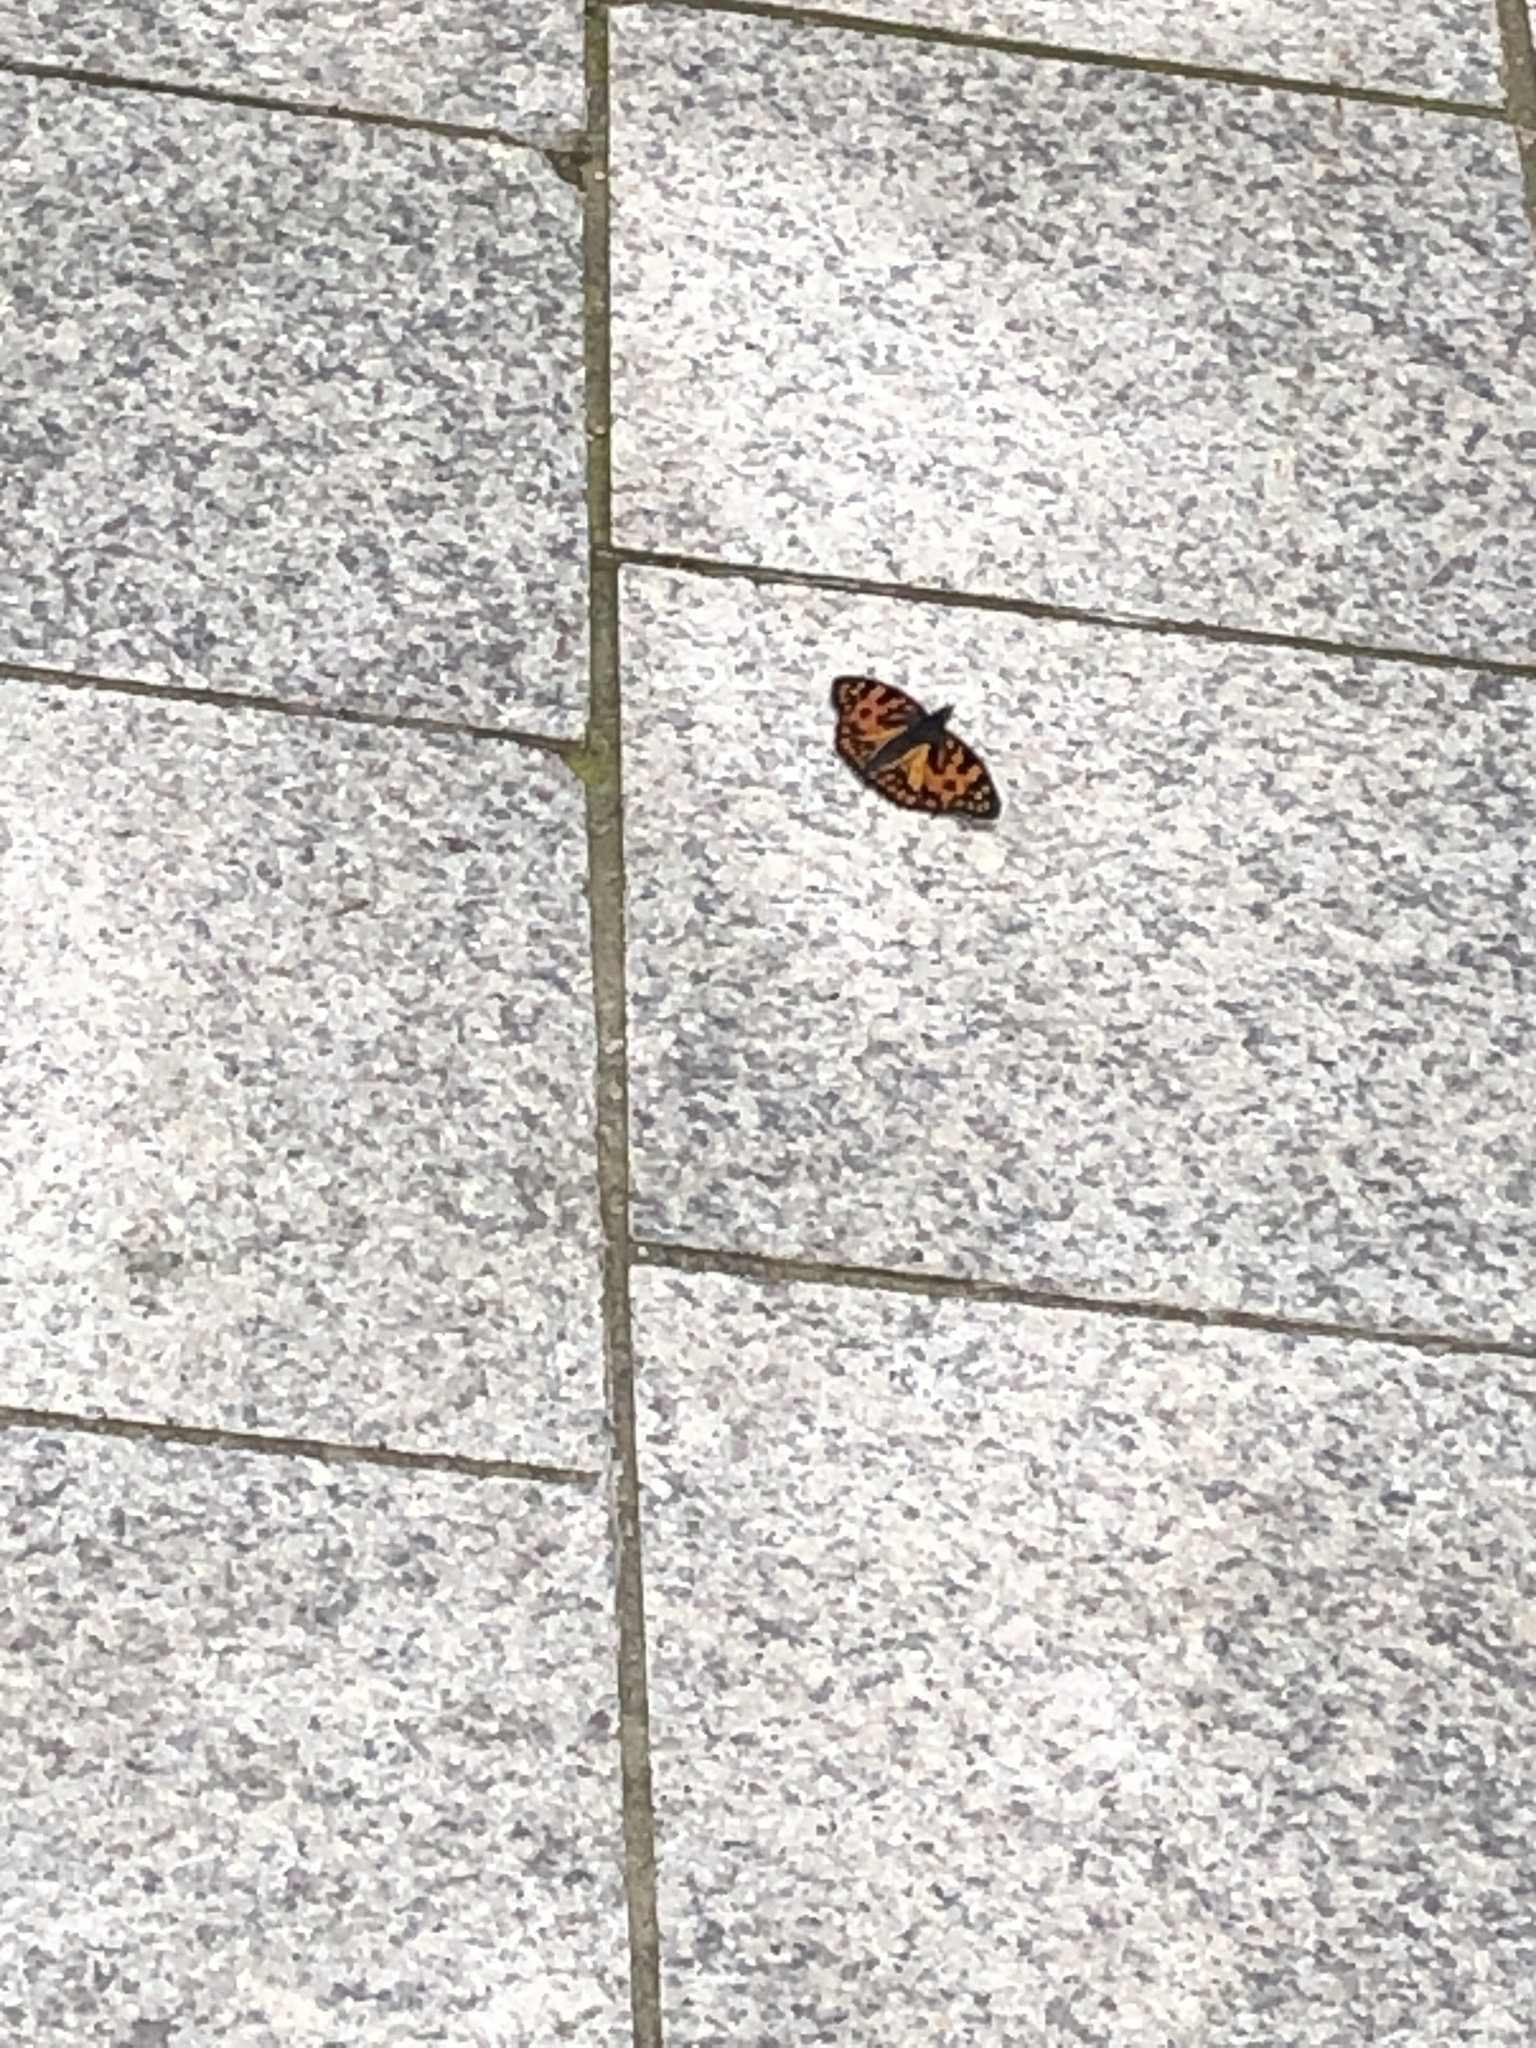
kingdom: Animalia
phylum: Arthropoda
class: Insecta
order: Lepidoptera
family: Nymphalidae
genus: Sephisa
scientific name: Sephisa dichroa
